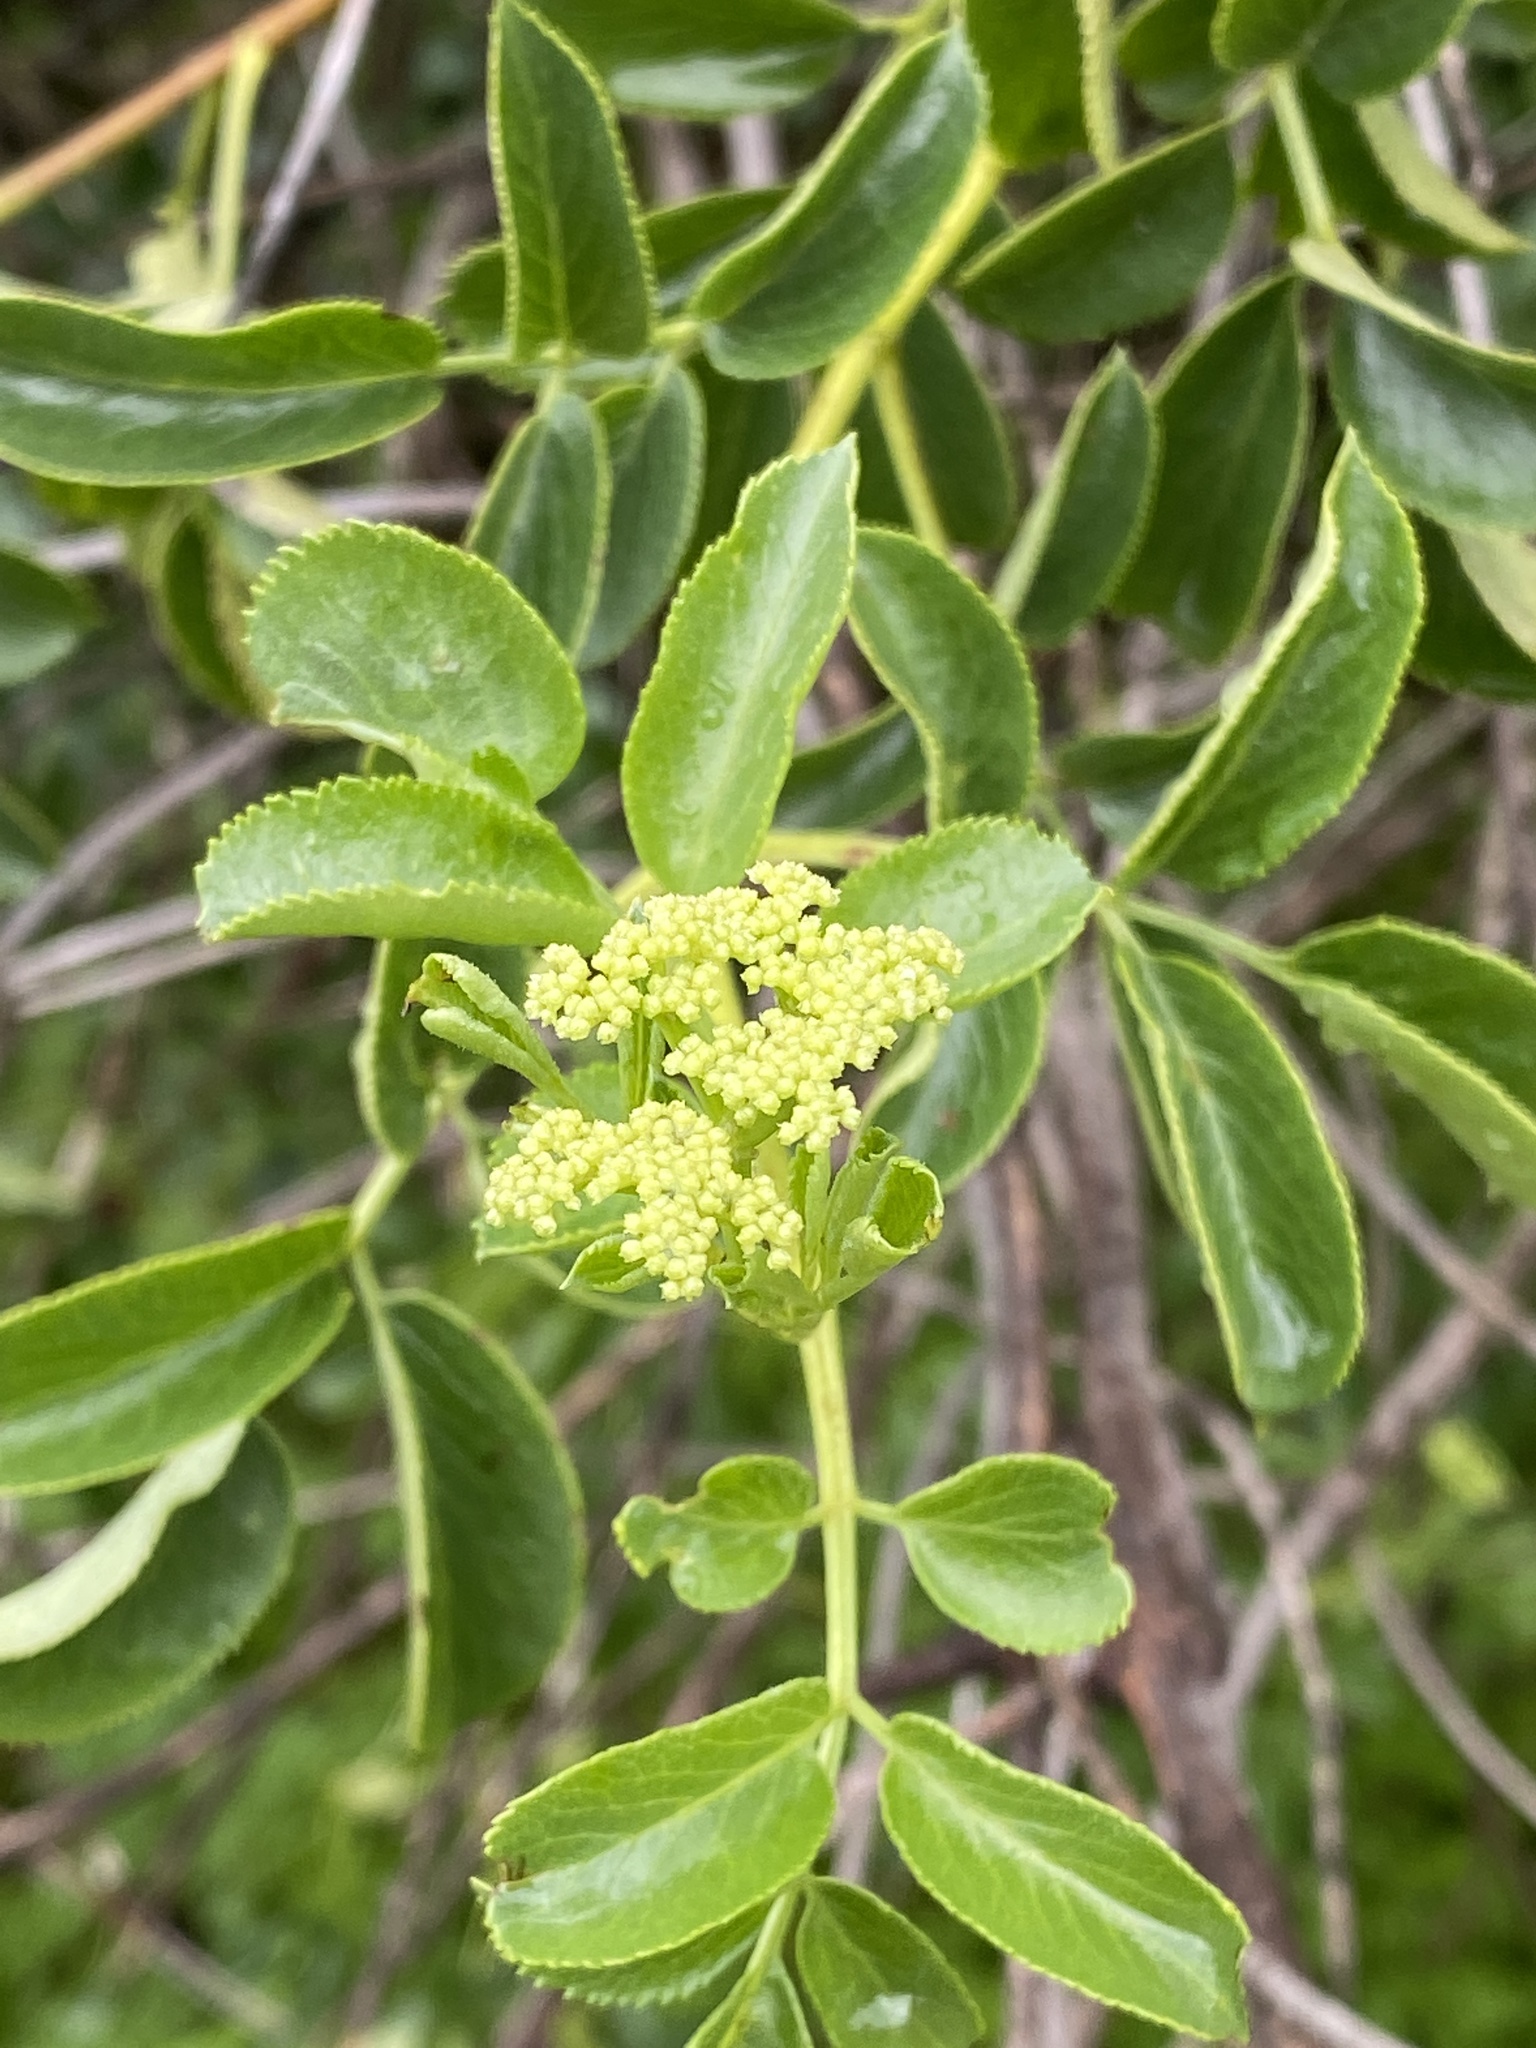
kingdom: Plantae
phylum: Tracheophyta
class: Magnoliopsida
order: Dipsacales
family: Viburnaceae
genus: Sambucus
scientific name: Sambucus cerulea
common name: Blue elder
